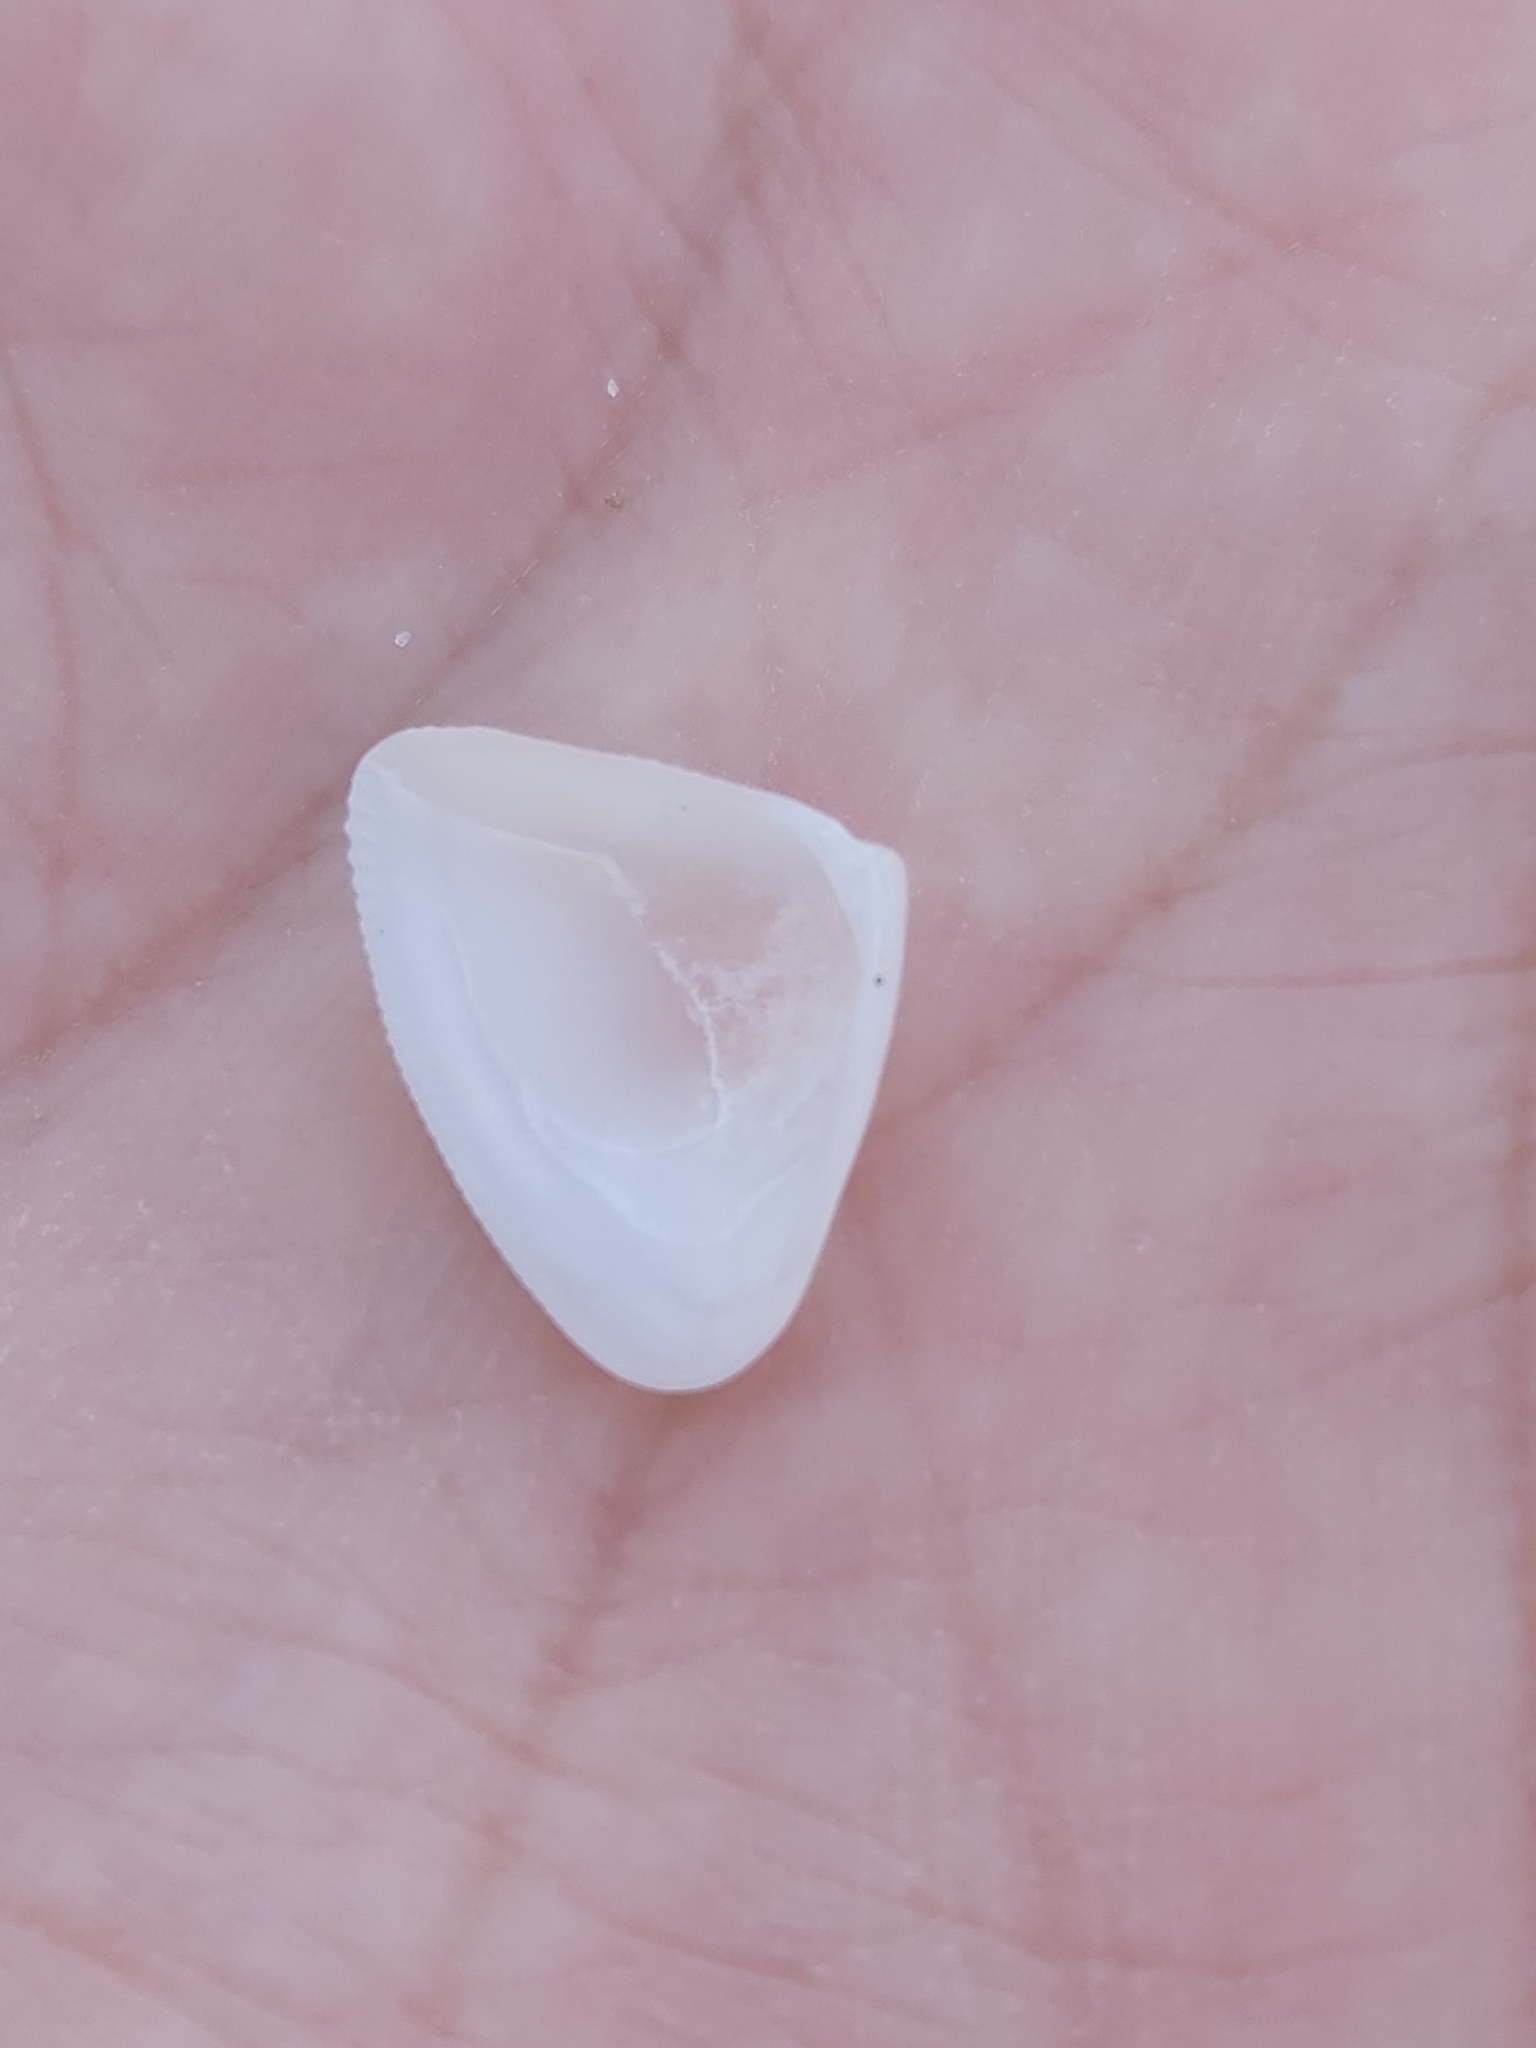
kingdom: Animalia
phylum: Mollusca
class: Bivalvia
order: Cardiida
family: Donacidae
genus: Donax
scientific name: Donax brazieri
